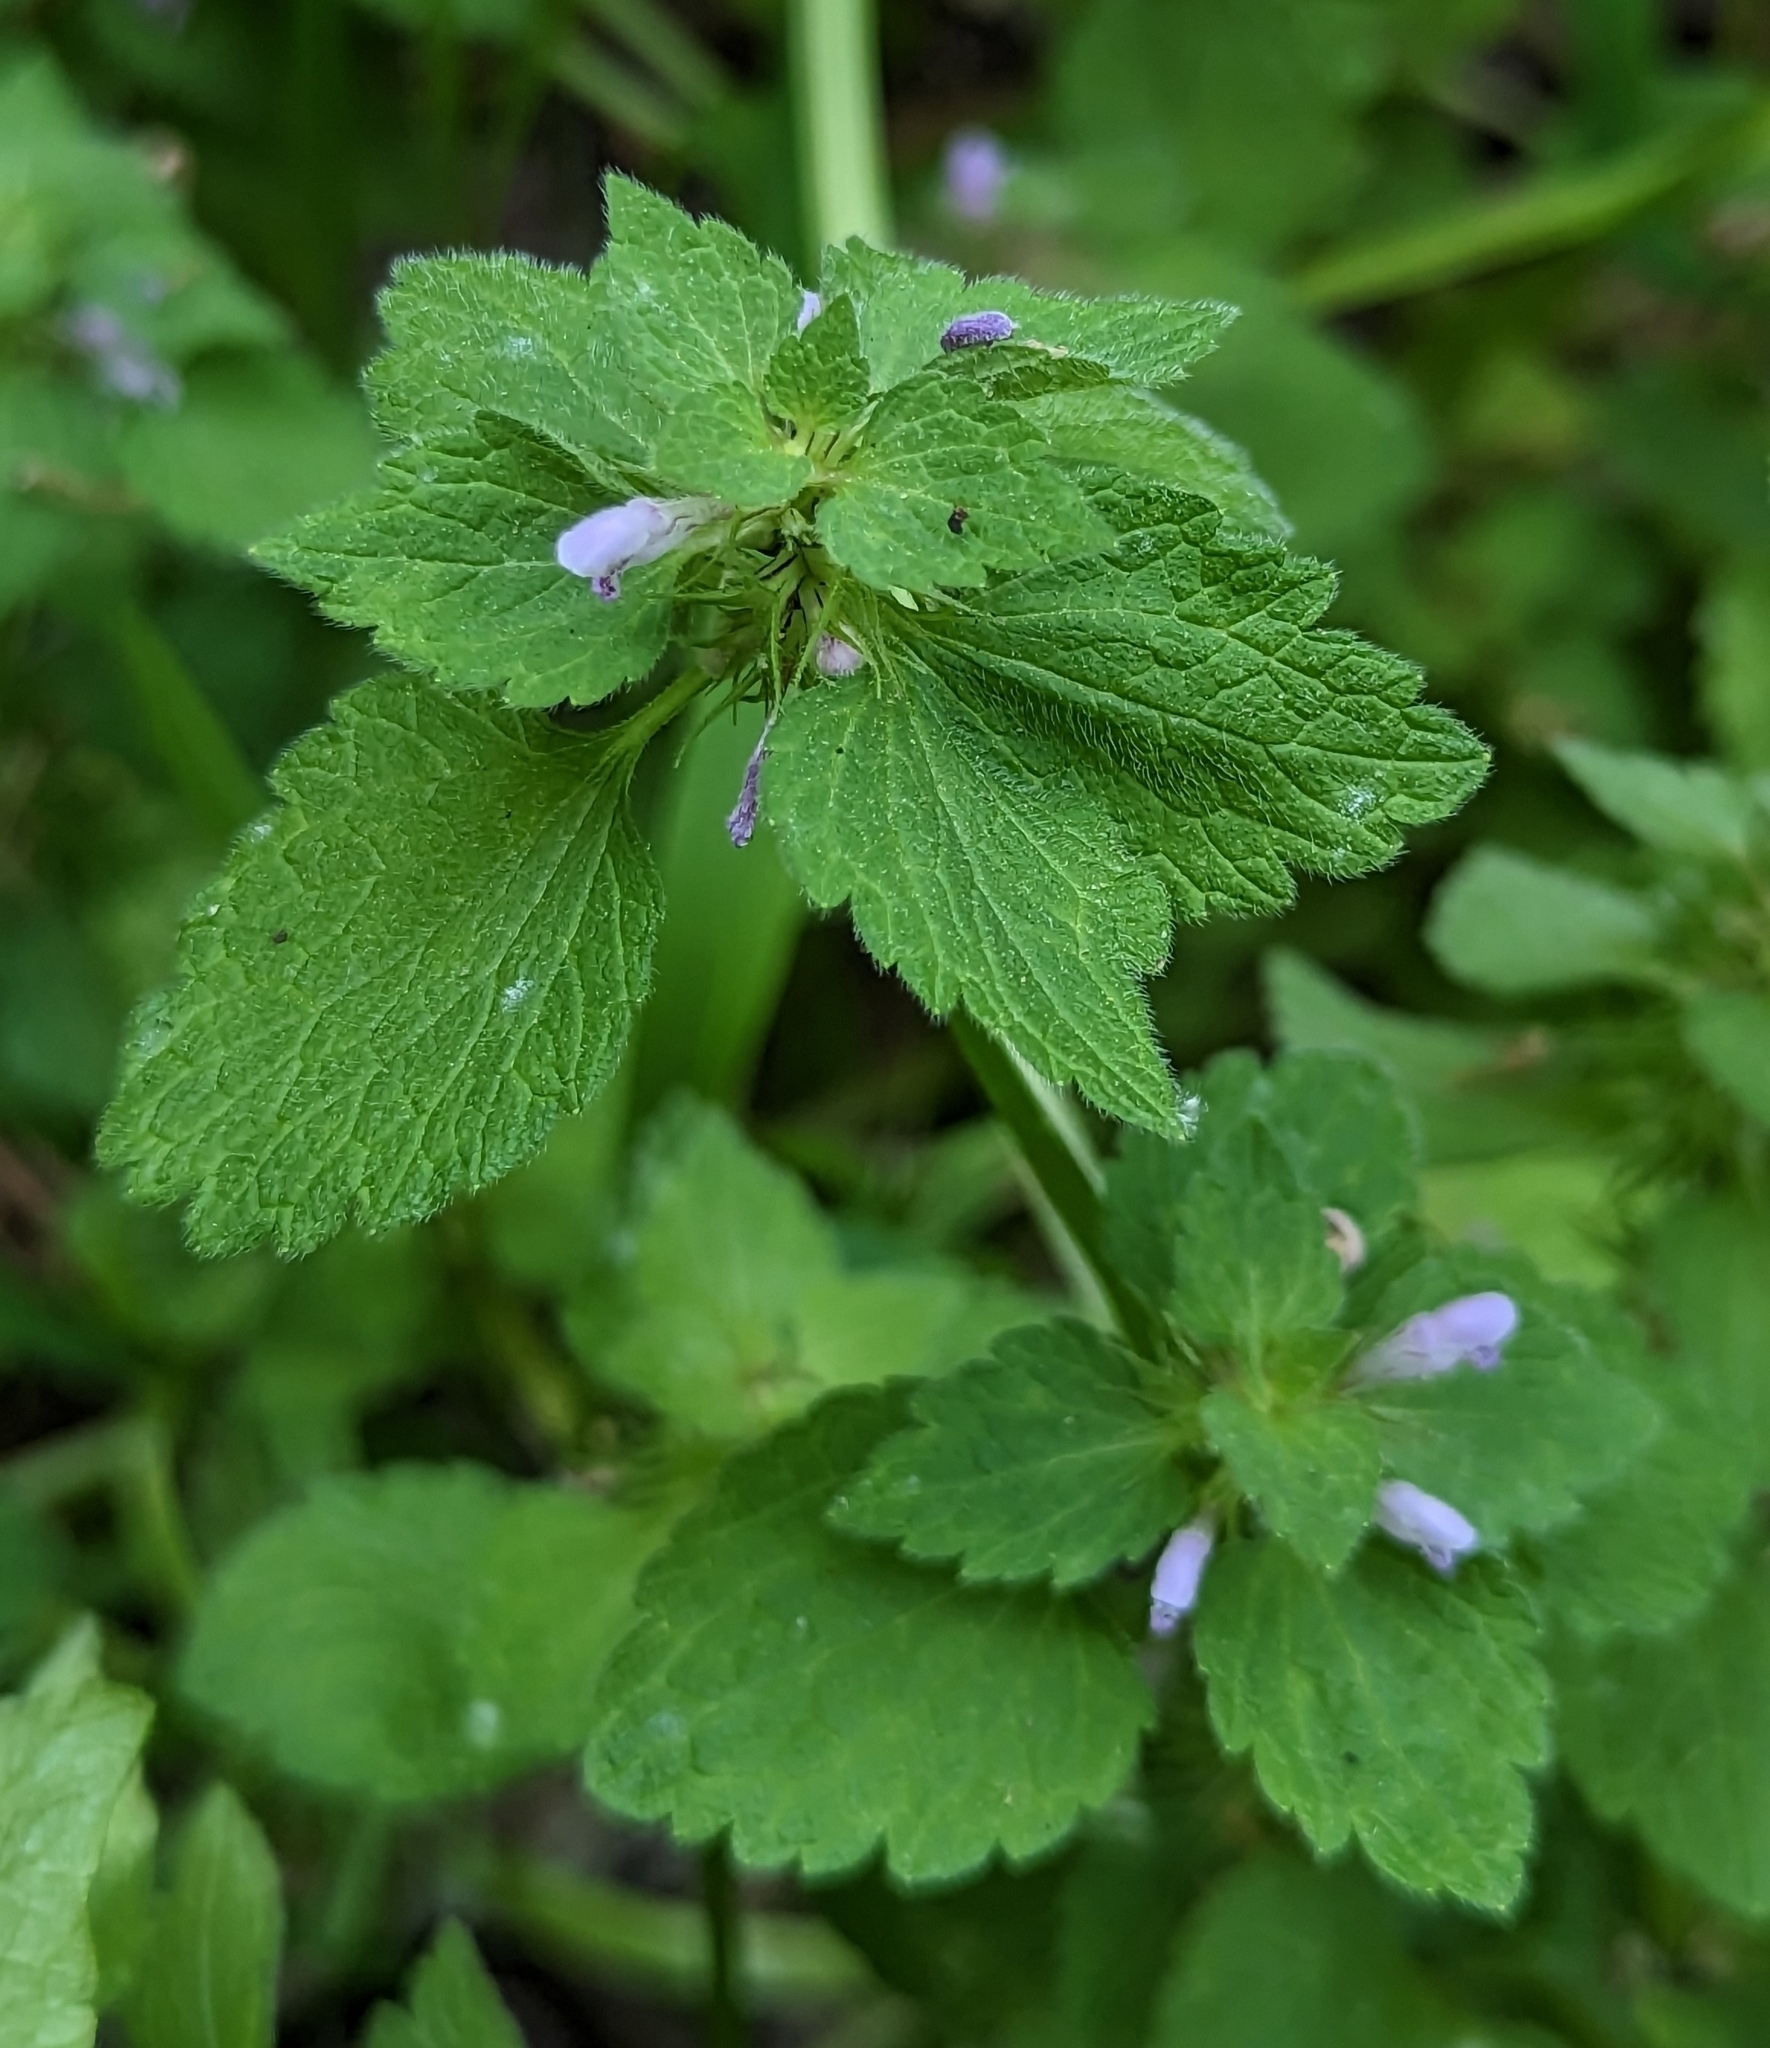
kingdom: Plantae
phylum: Tracheophyta
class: Magnoliopsida
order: Lamiales
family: Lamiaceae
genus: Lamium
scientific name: Lamium purpureum
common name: Red dead-nettle
